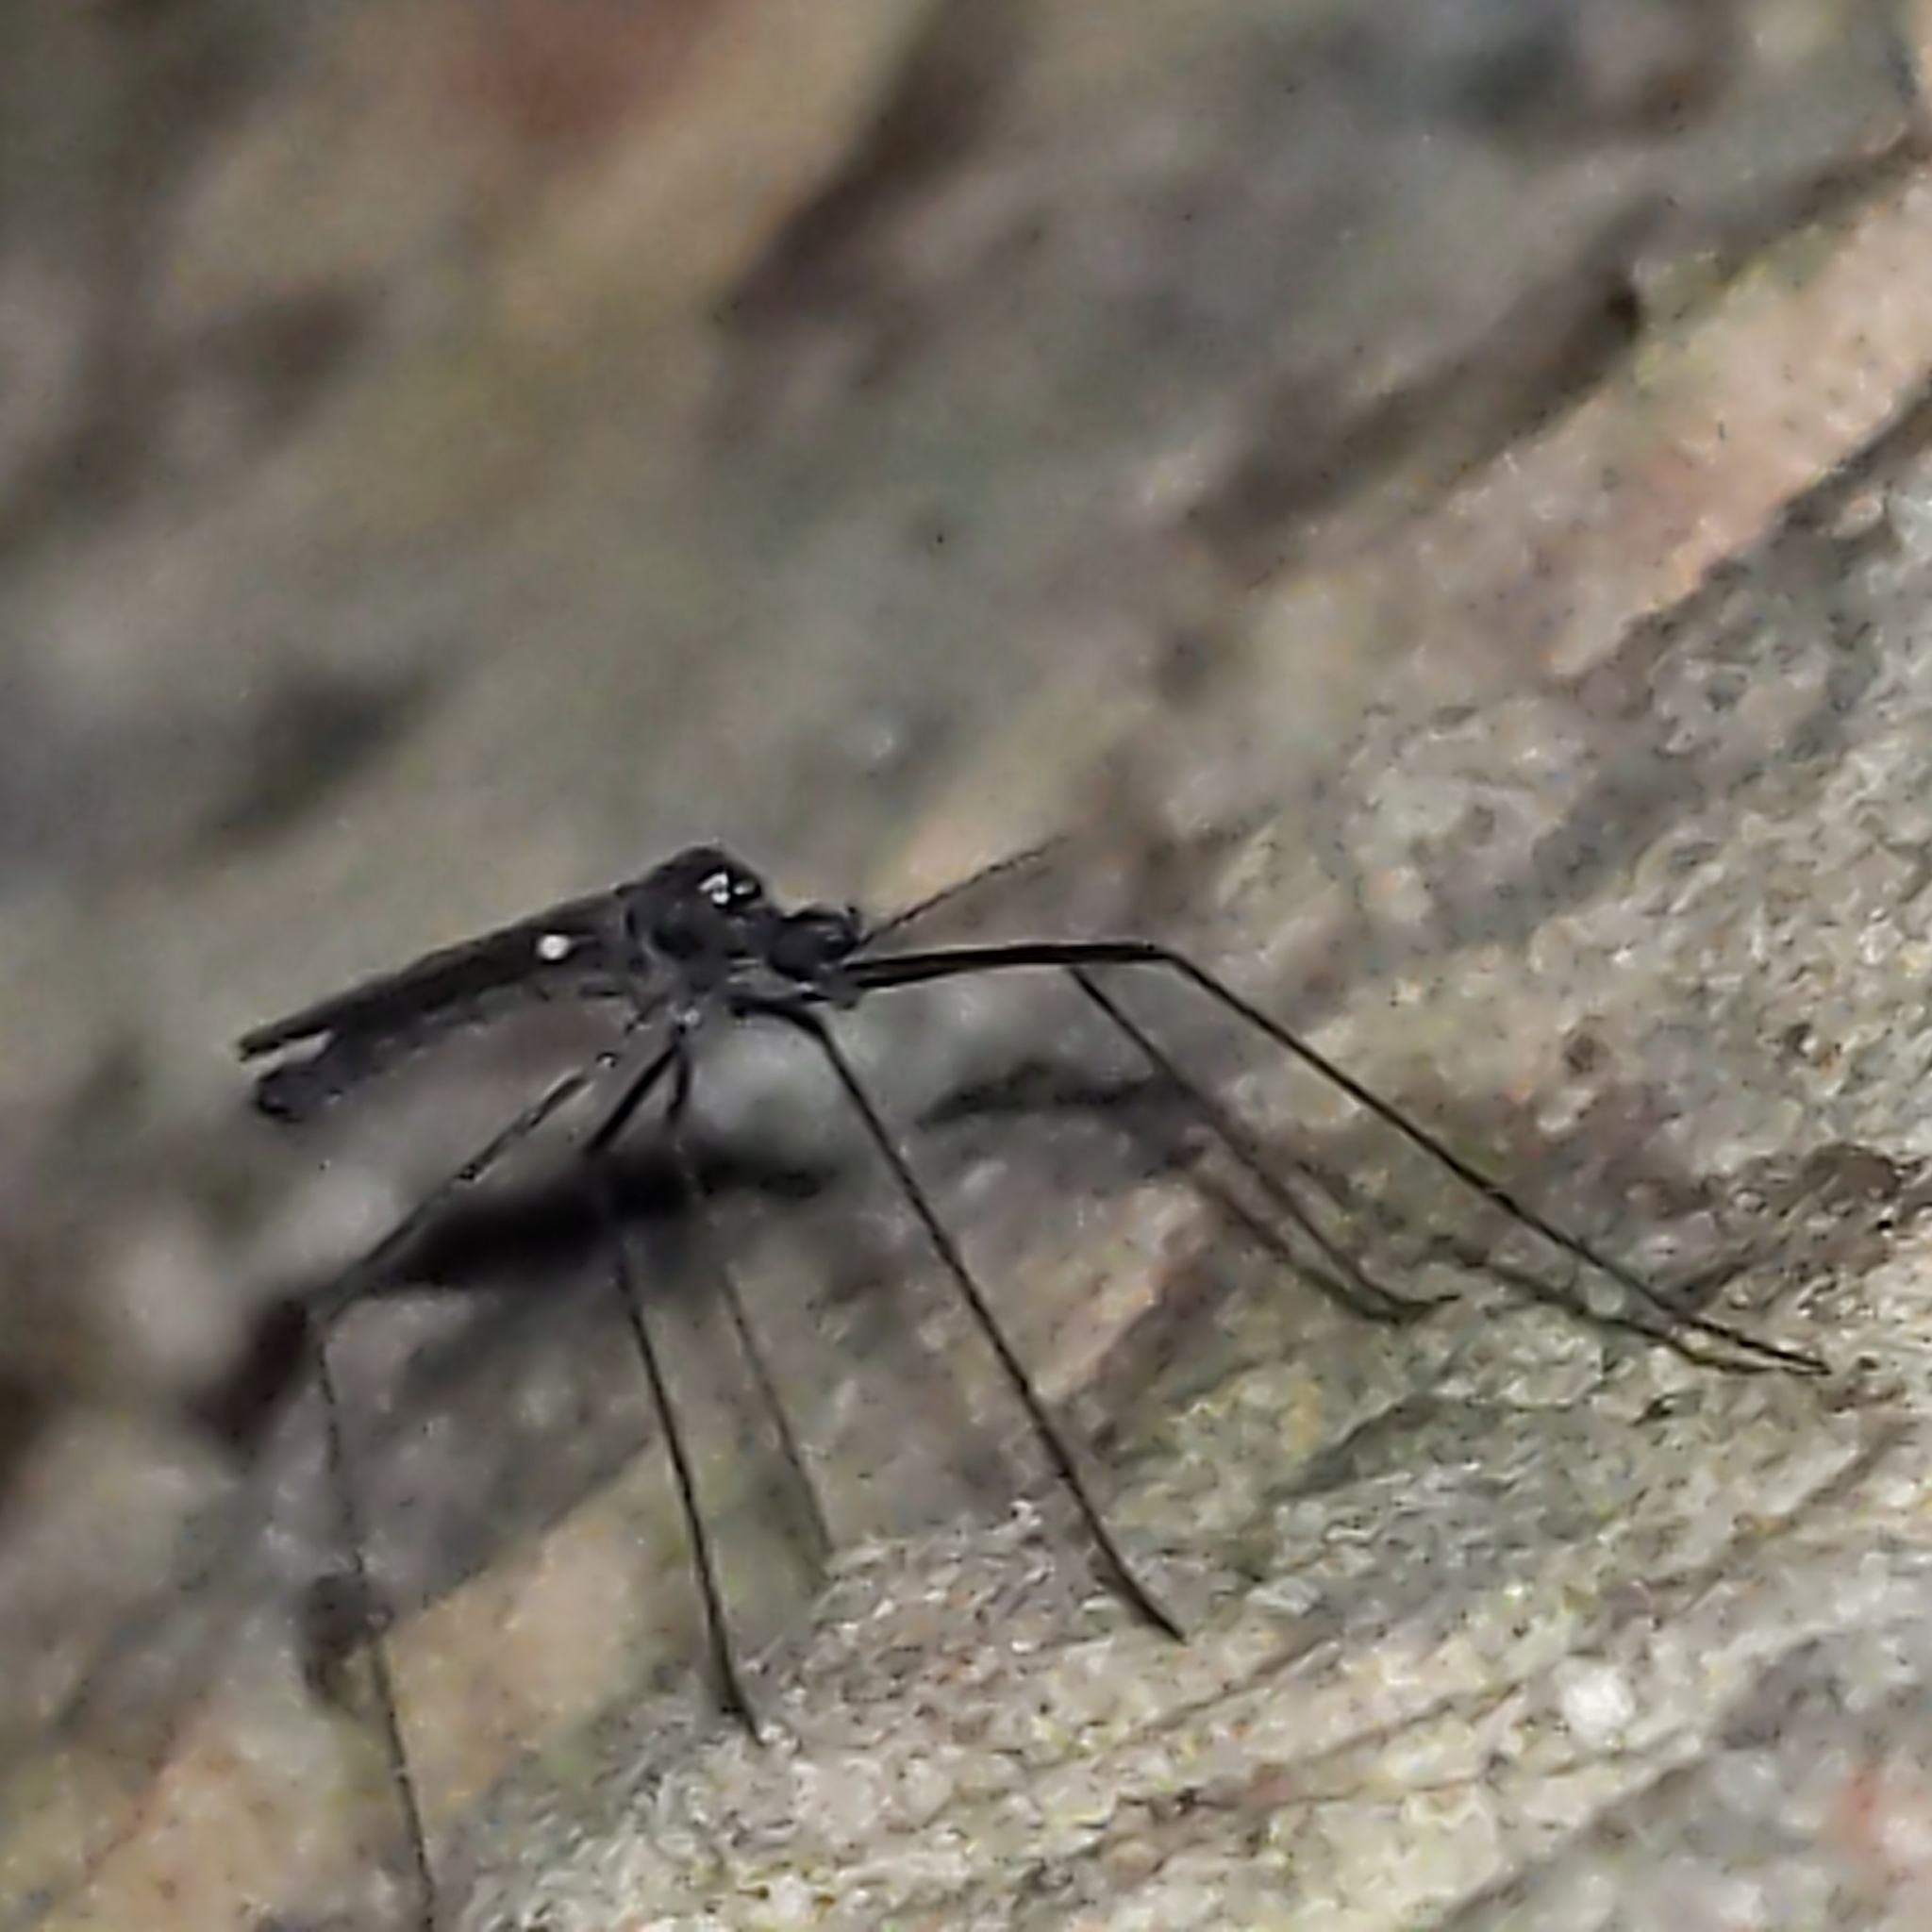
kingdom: Animalia
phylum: Arthropoda
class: Insecta
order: Diptera
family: Limoniidae
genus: Gnophomyia
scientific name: Gnophomyia tristissima
